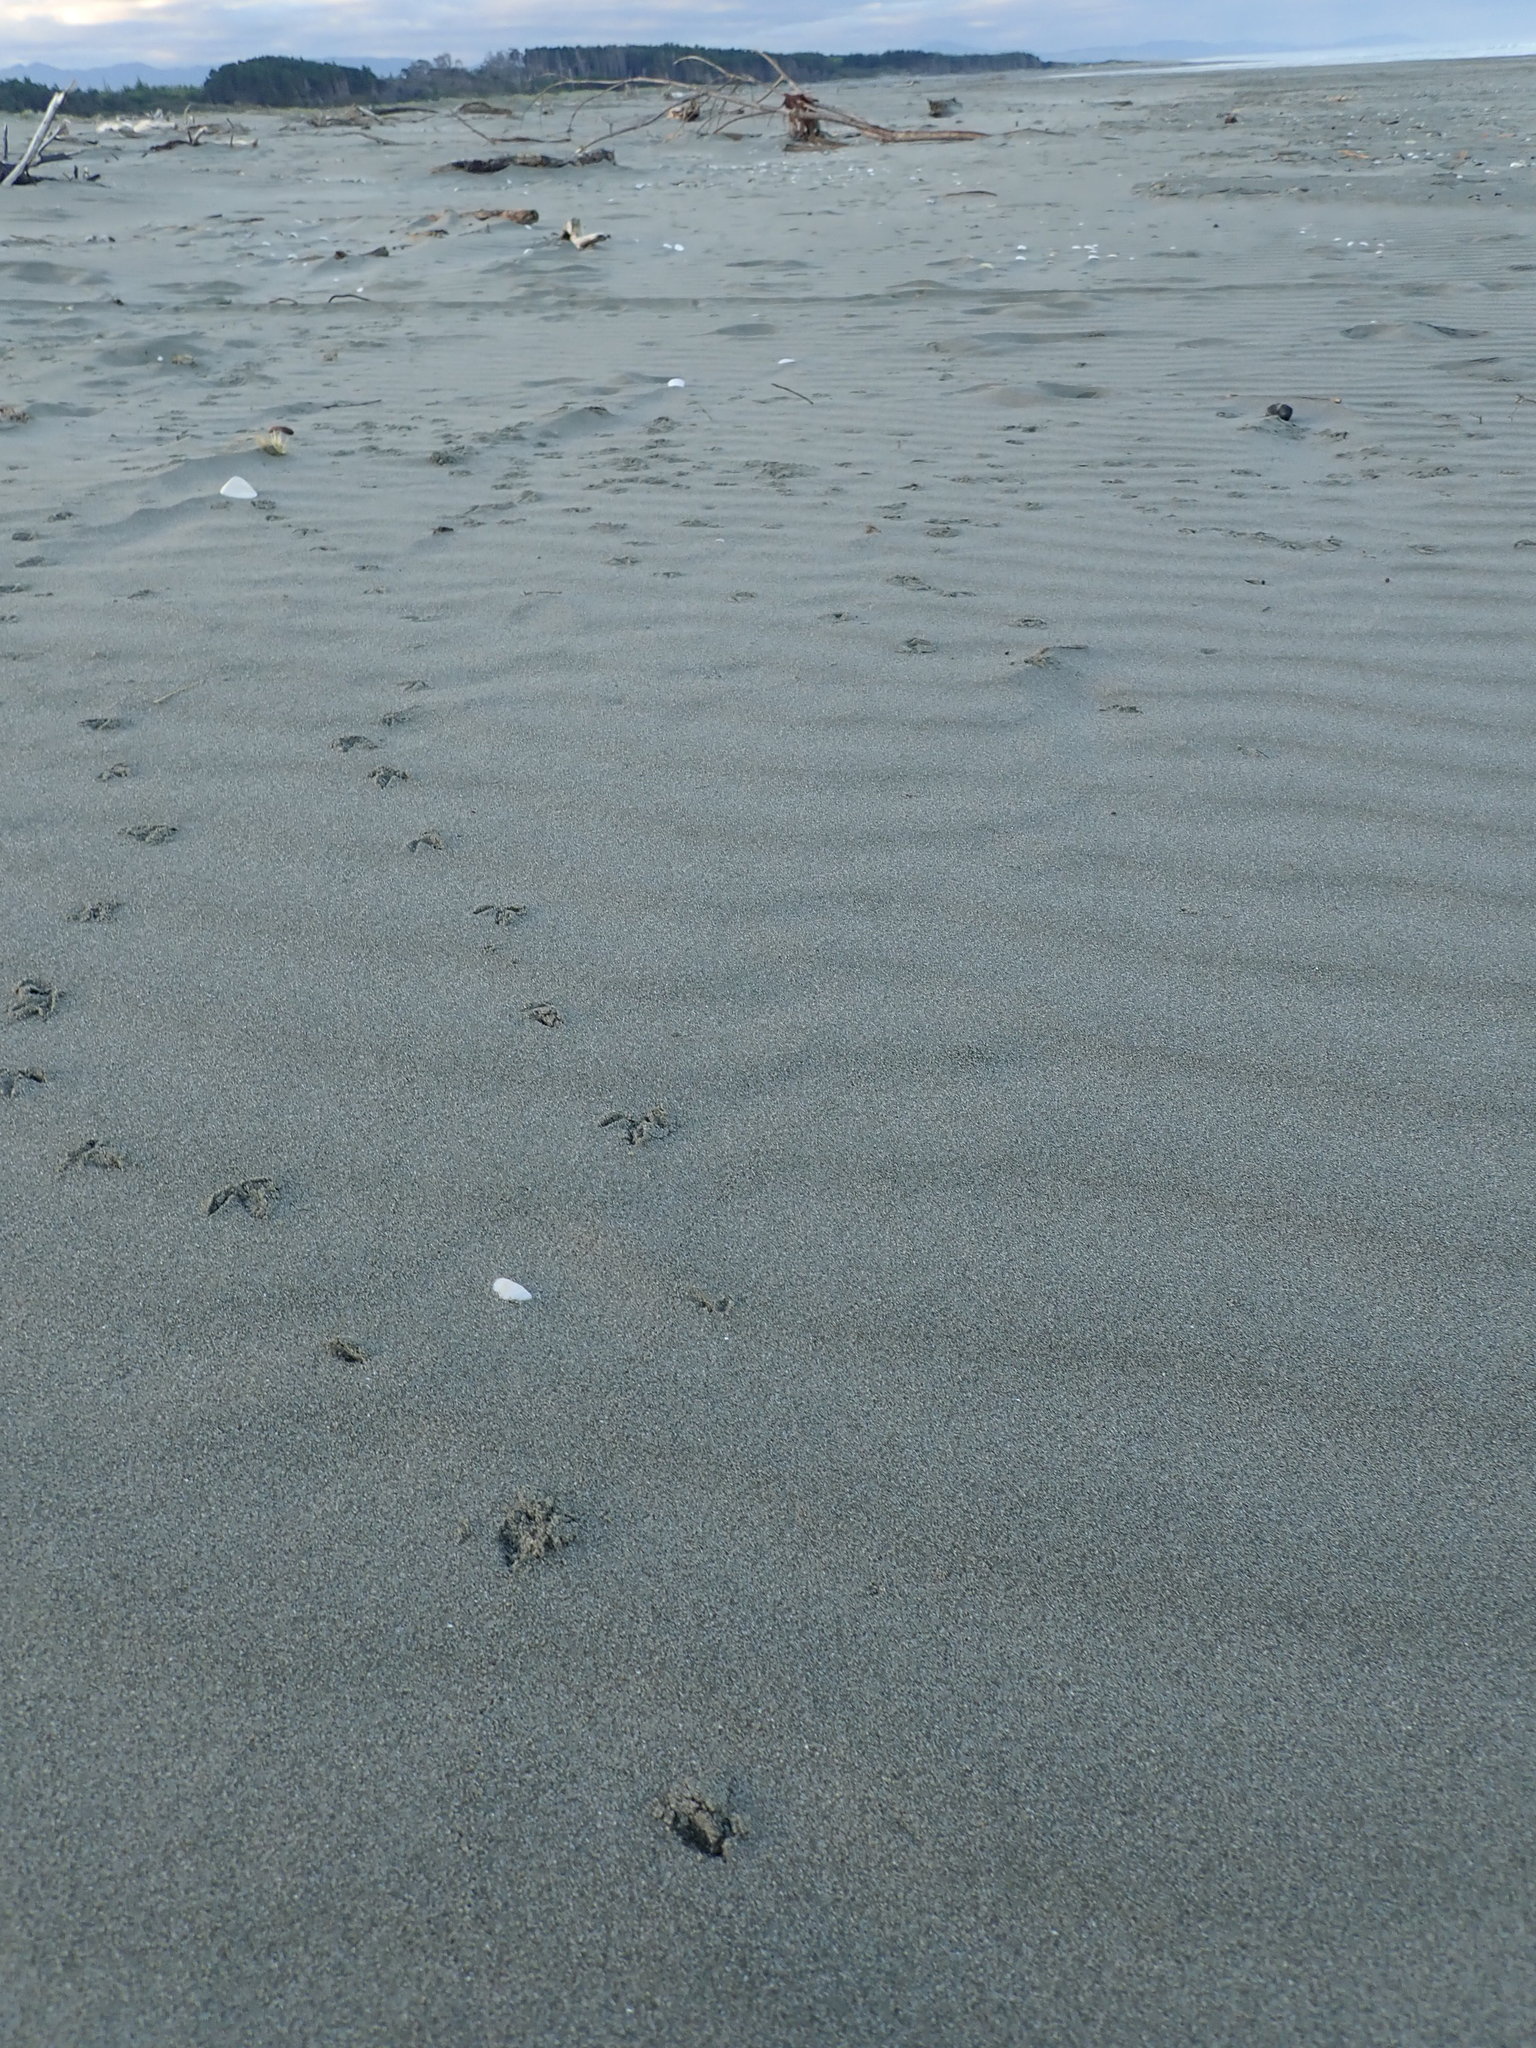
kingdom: Animalia
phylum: Chordata
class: Aves
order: Charadriiformes
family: Charadriidae
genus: Anarhynchus
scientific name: Anarhynchus
